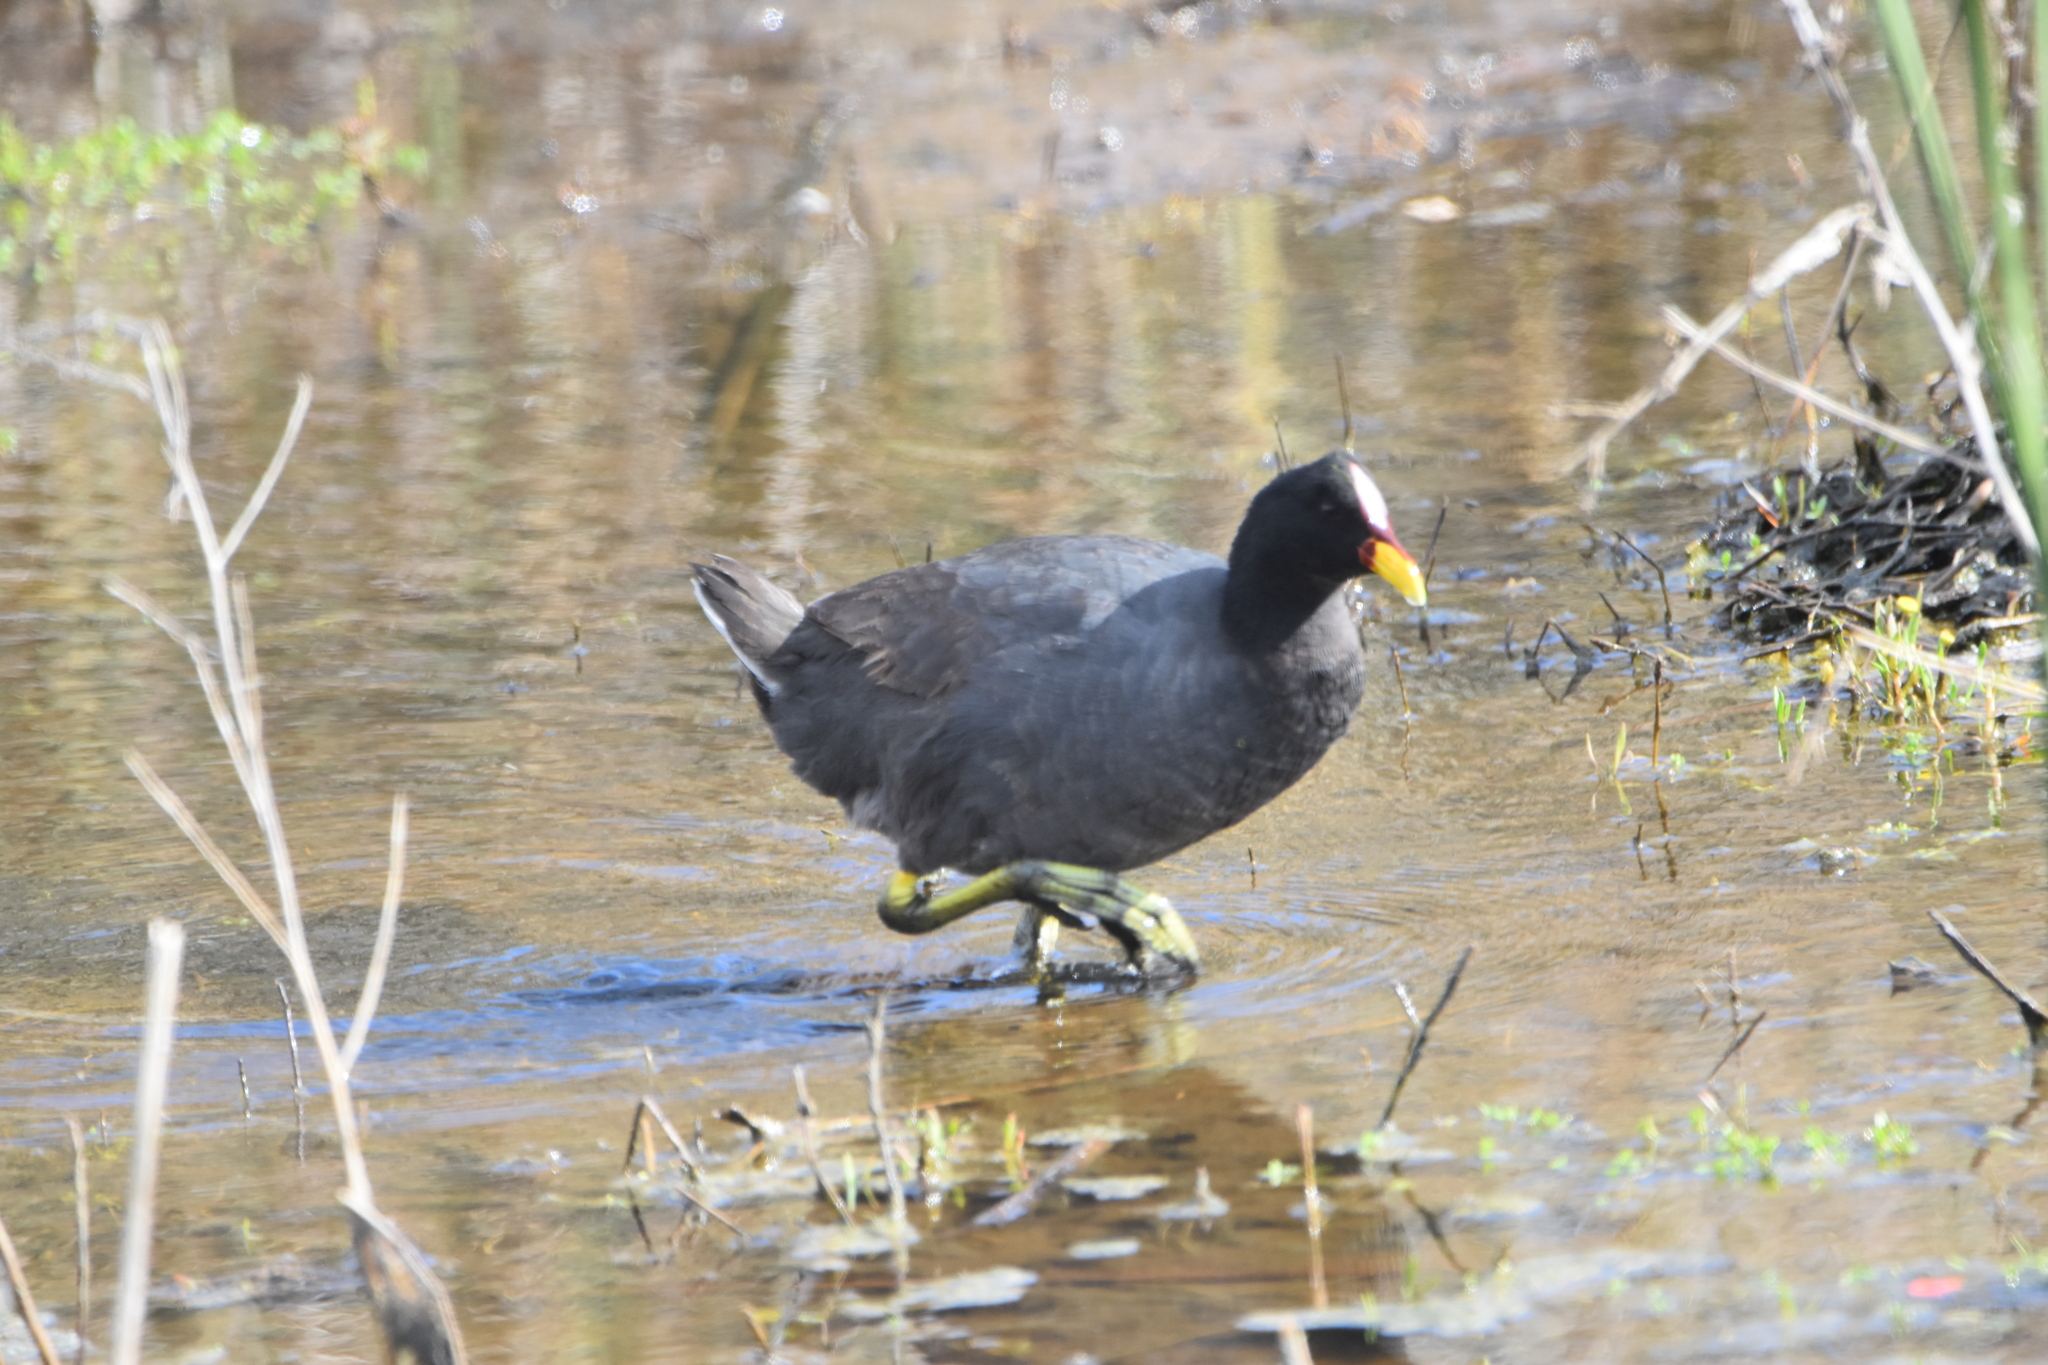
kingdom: Animalia
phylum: Chordata
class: Aves
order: Gruiformes
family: Rallidae
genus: Fulica
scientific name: Fulica rufifrons
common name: Red-fronted coot
